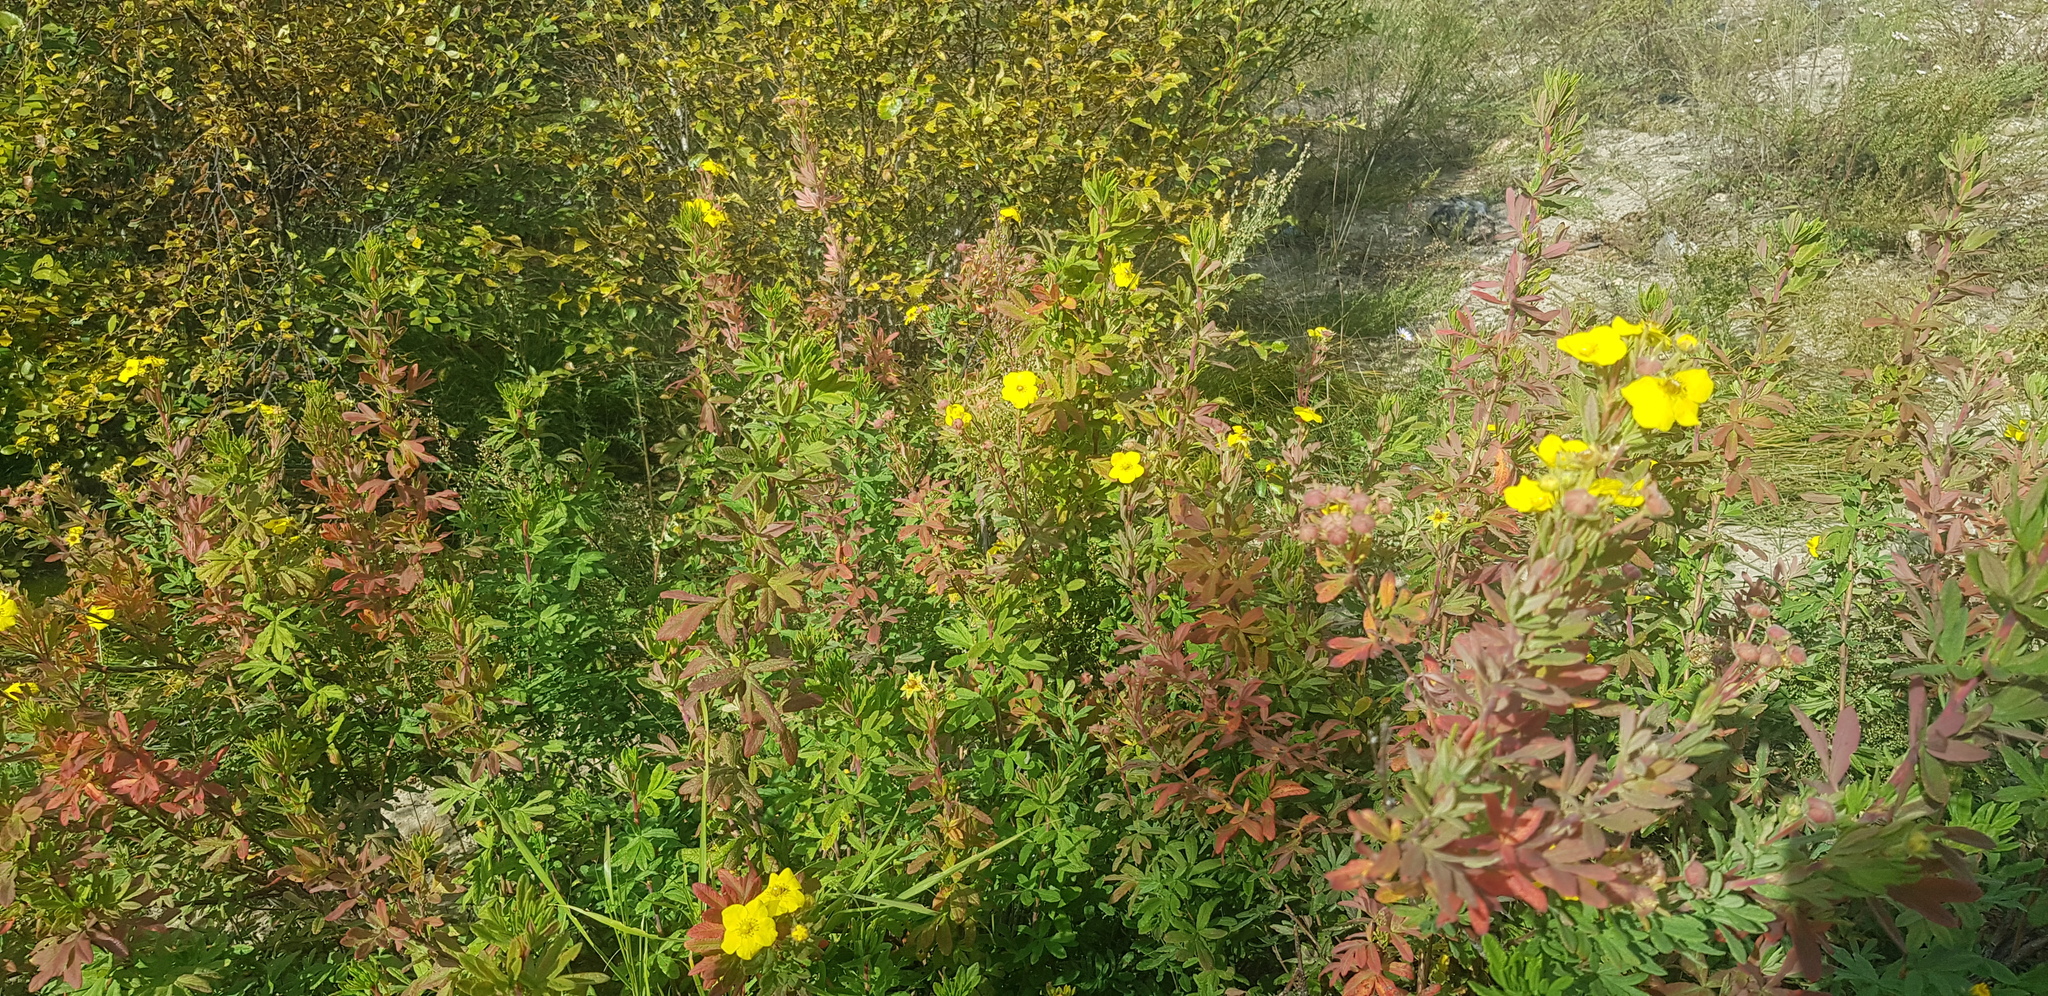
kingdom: Plantae
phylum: Tracheophyta
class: Magnoliopsida
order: Rosales
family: Rosaceae
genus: Dasiphora
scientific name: Dasiphora fruticosa
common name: Shrubby cinquefoil
